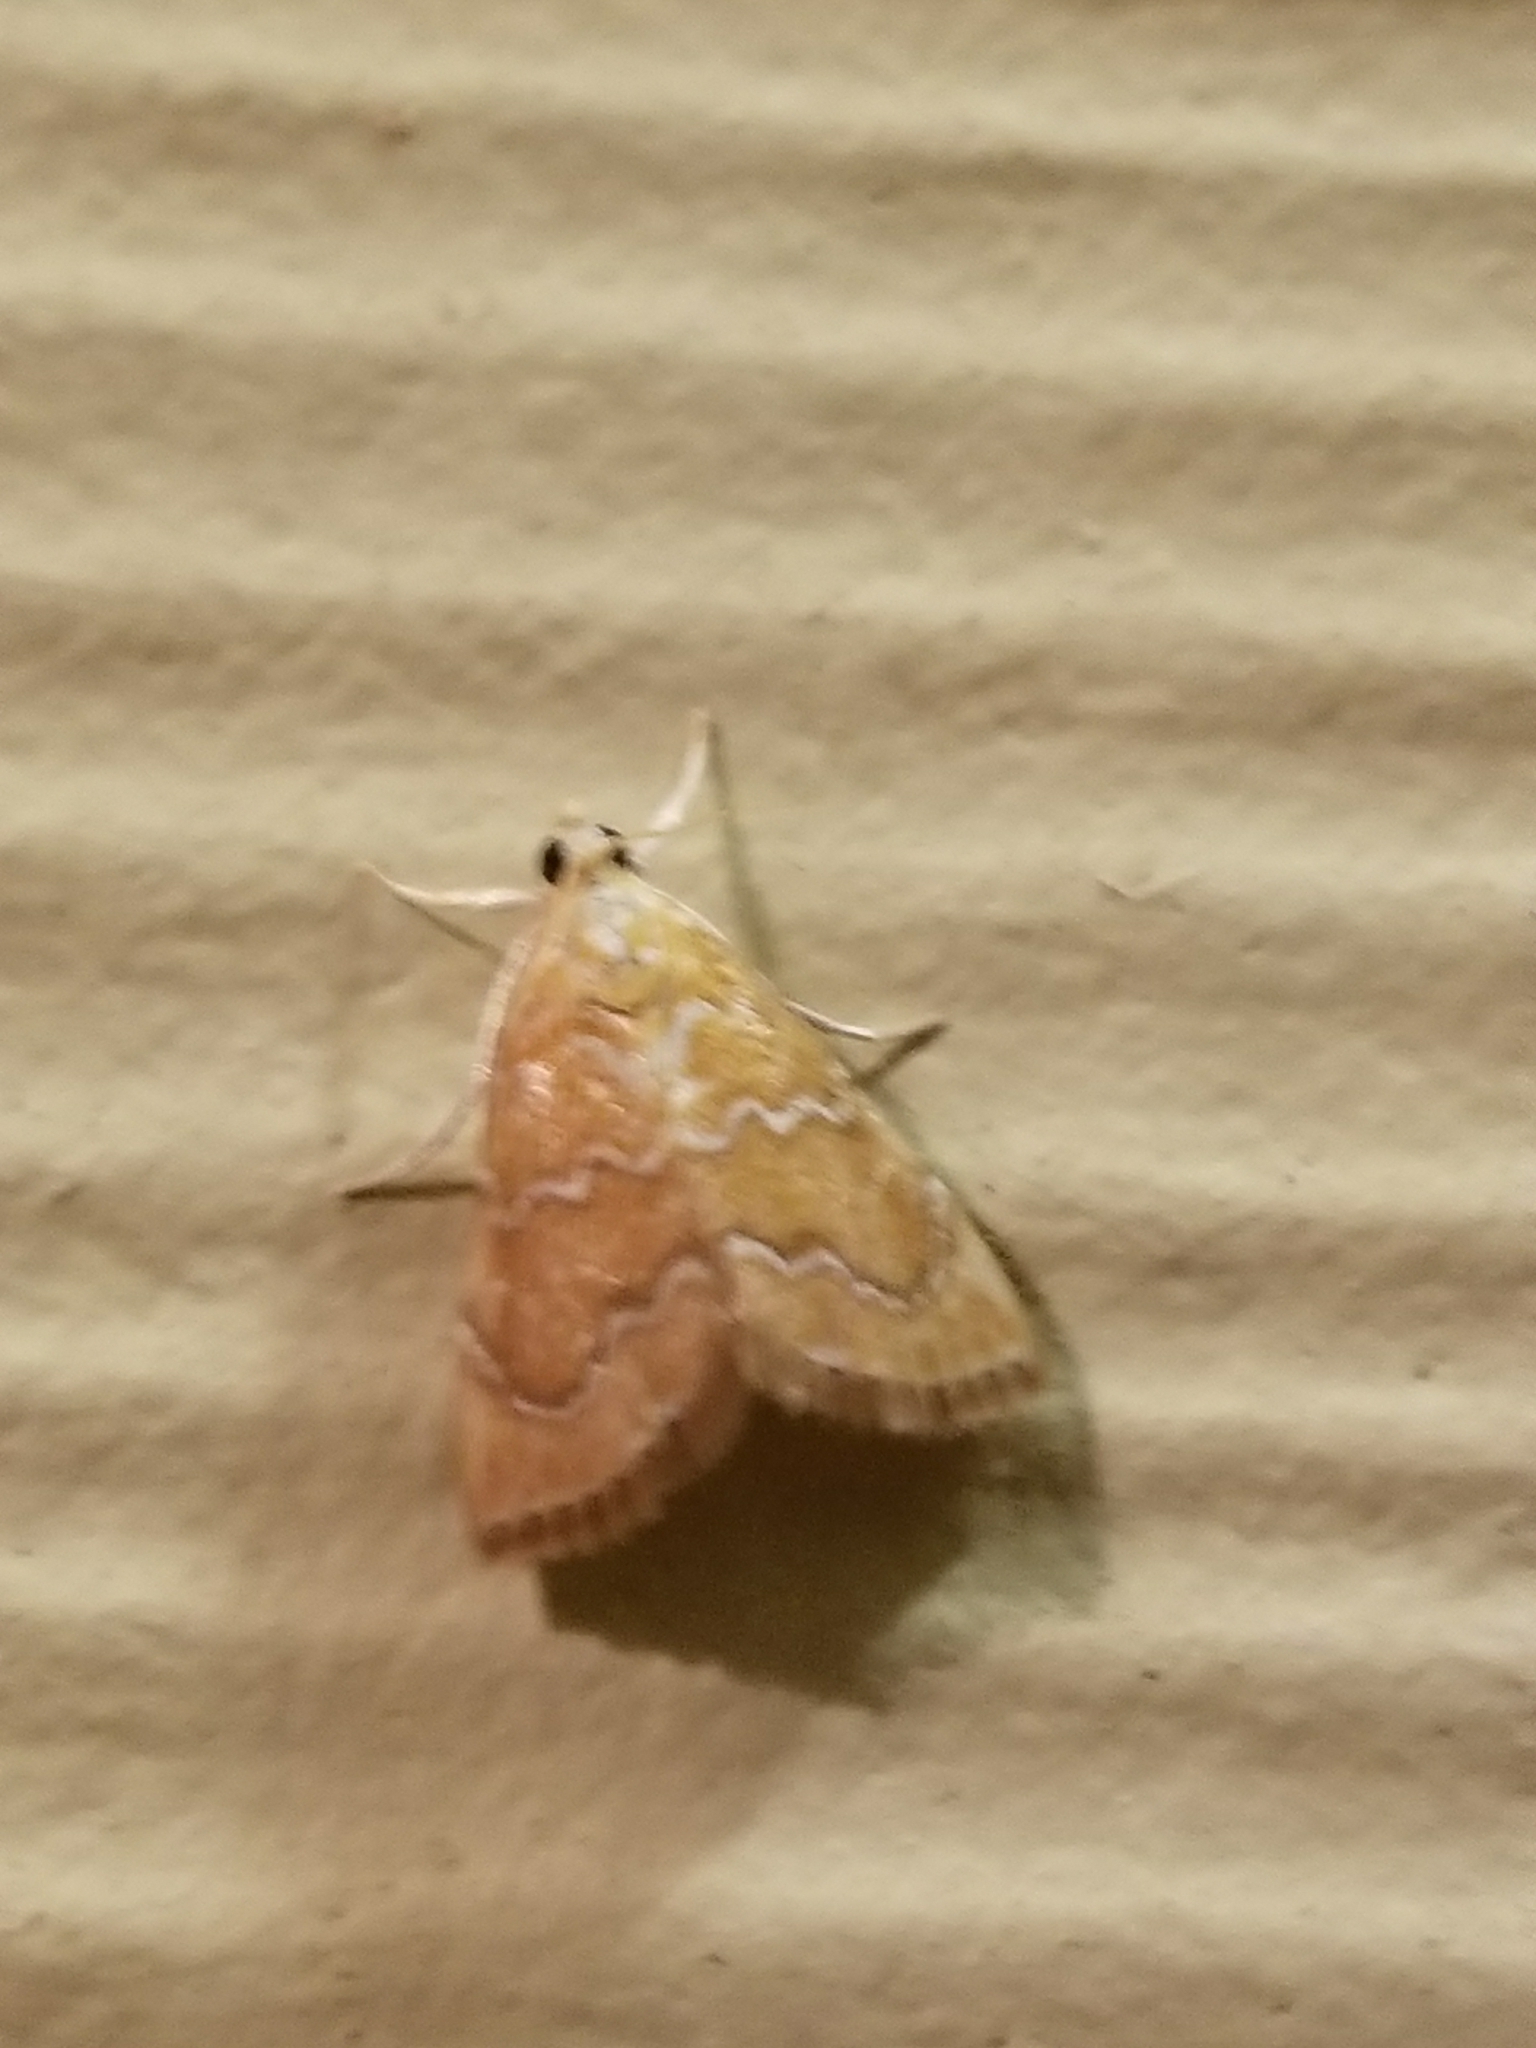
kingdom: Animalia
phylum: Arthropoda
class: Insecta
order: Lepidoptera
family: Crambidae
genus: Glaphyria
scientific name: Glaphyria sesquistrialis
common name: White-roped glaphyria
